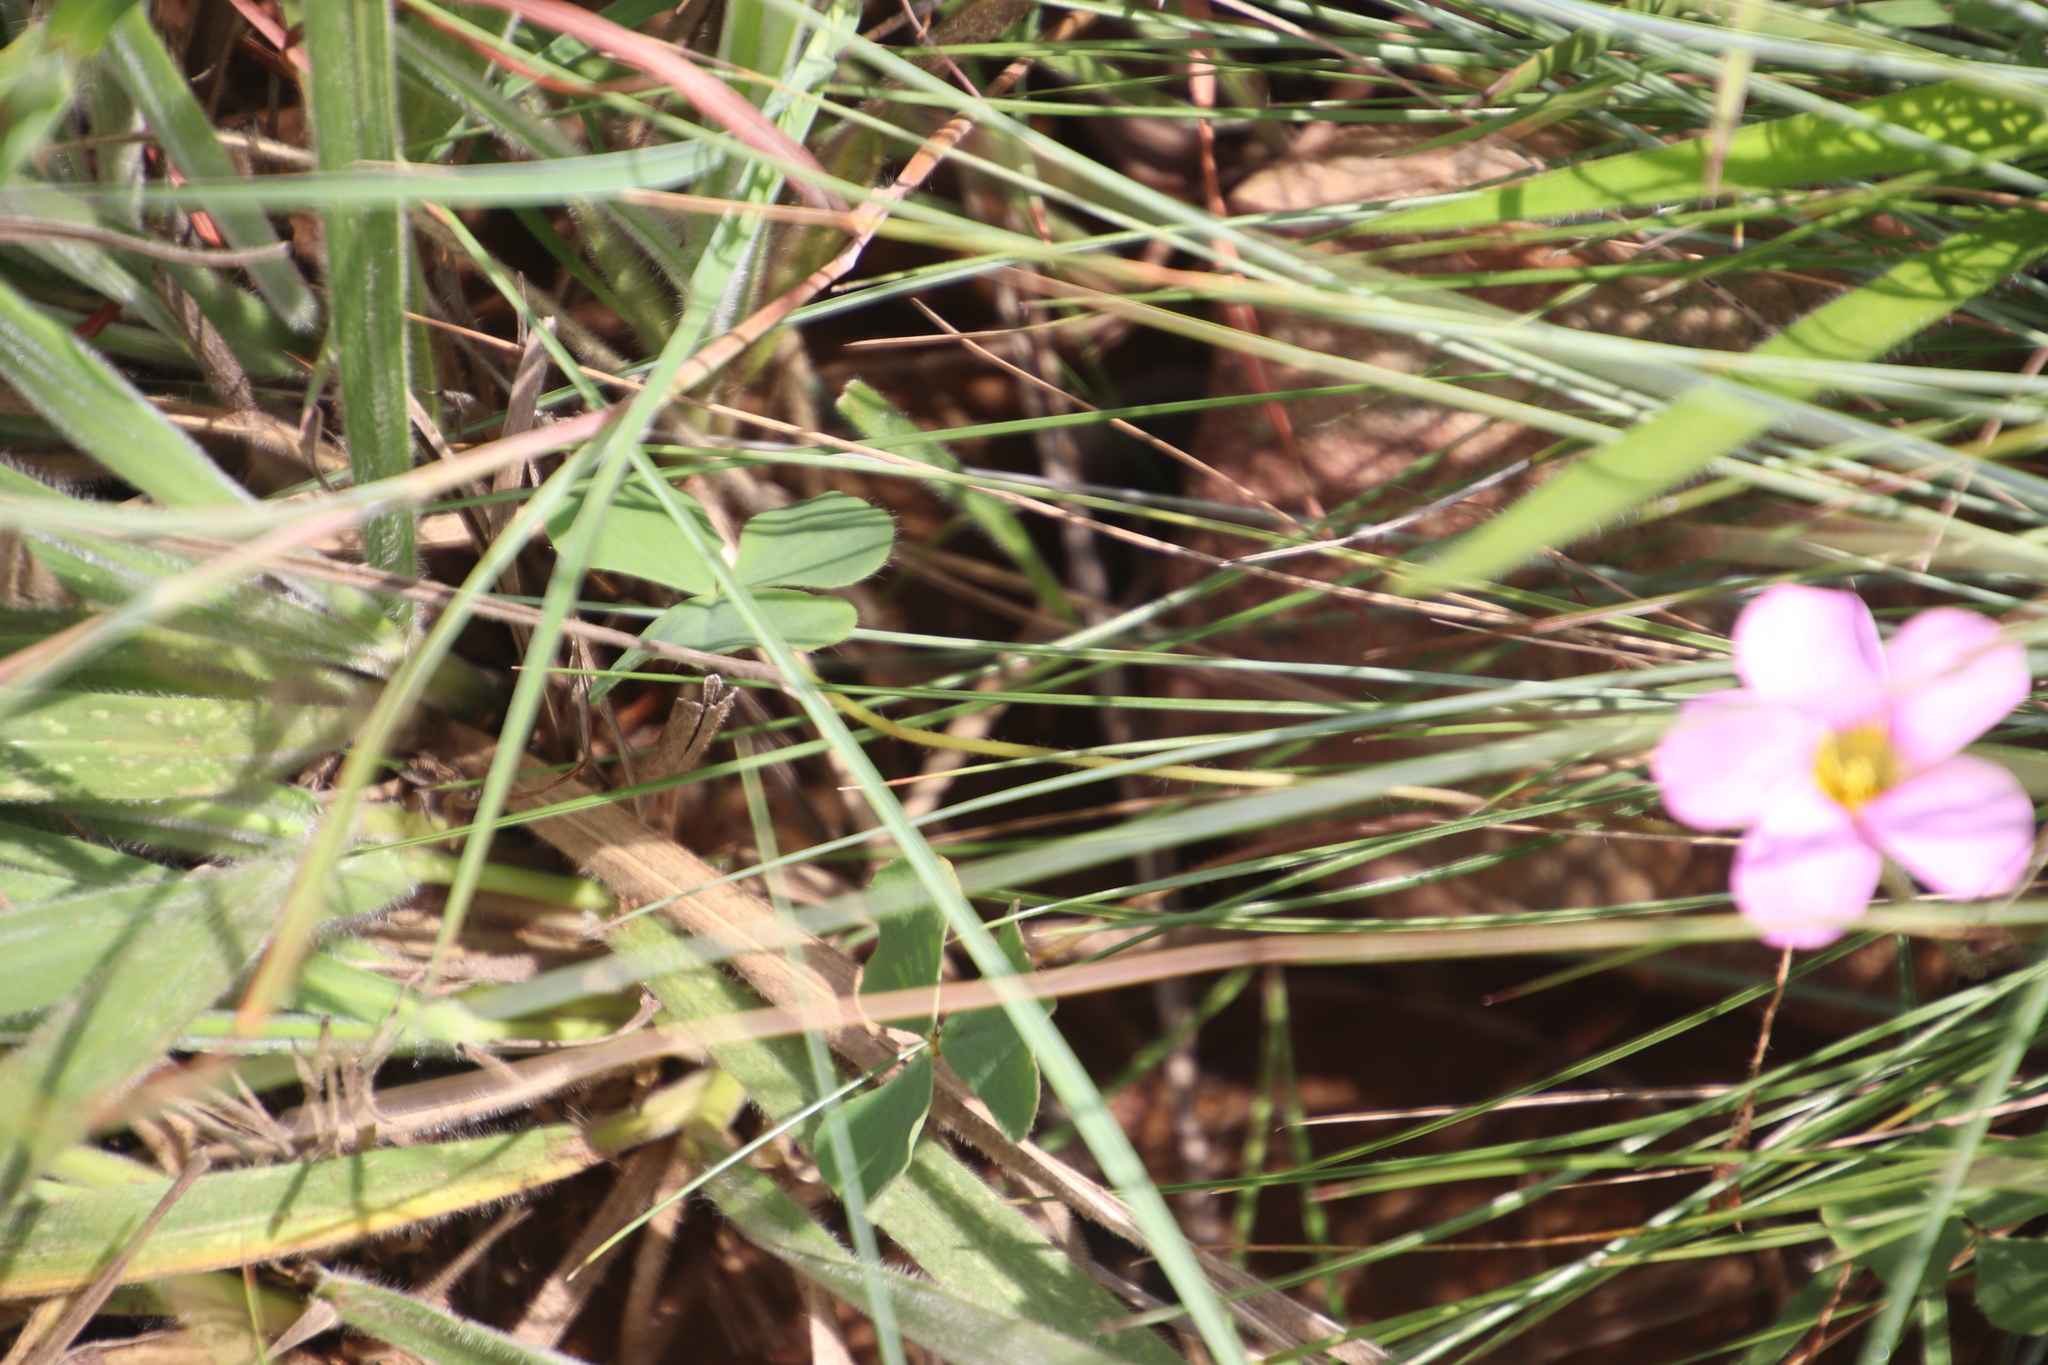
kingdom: Plantae
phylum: Tracheophyta
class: Magnoliopsida
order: Oxalidales
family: Oxalidaceae
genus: Oxalis
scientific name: Oxalis obliquifolia
